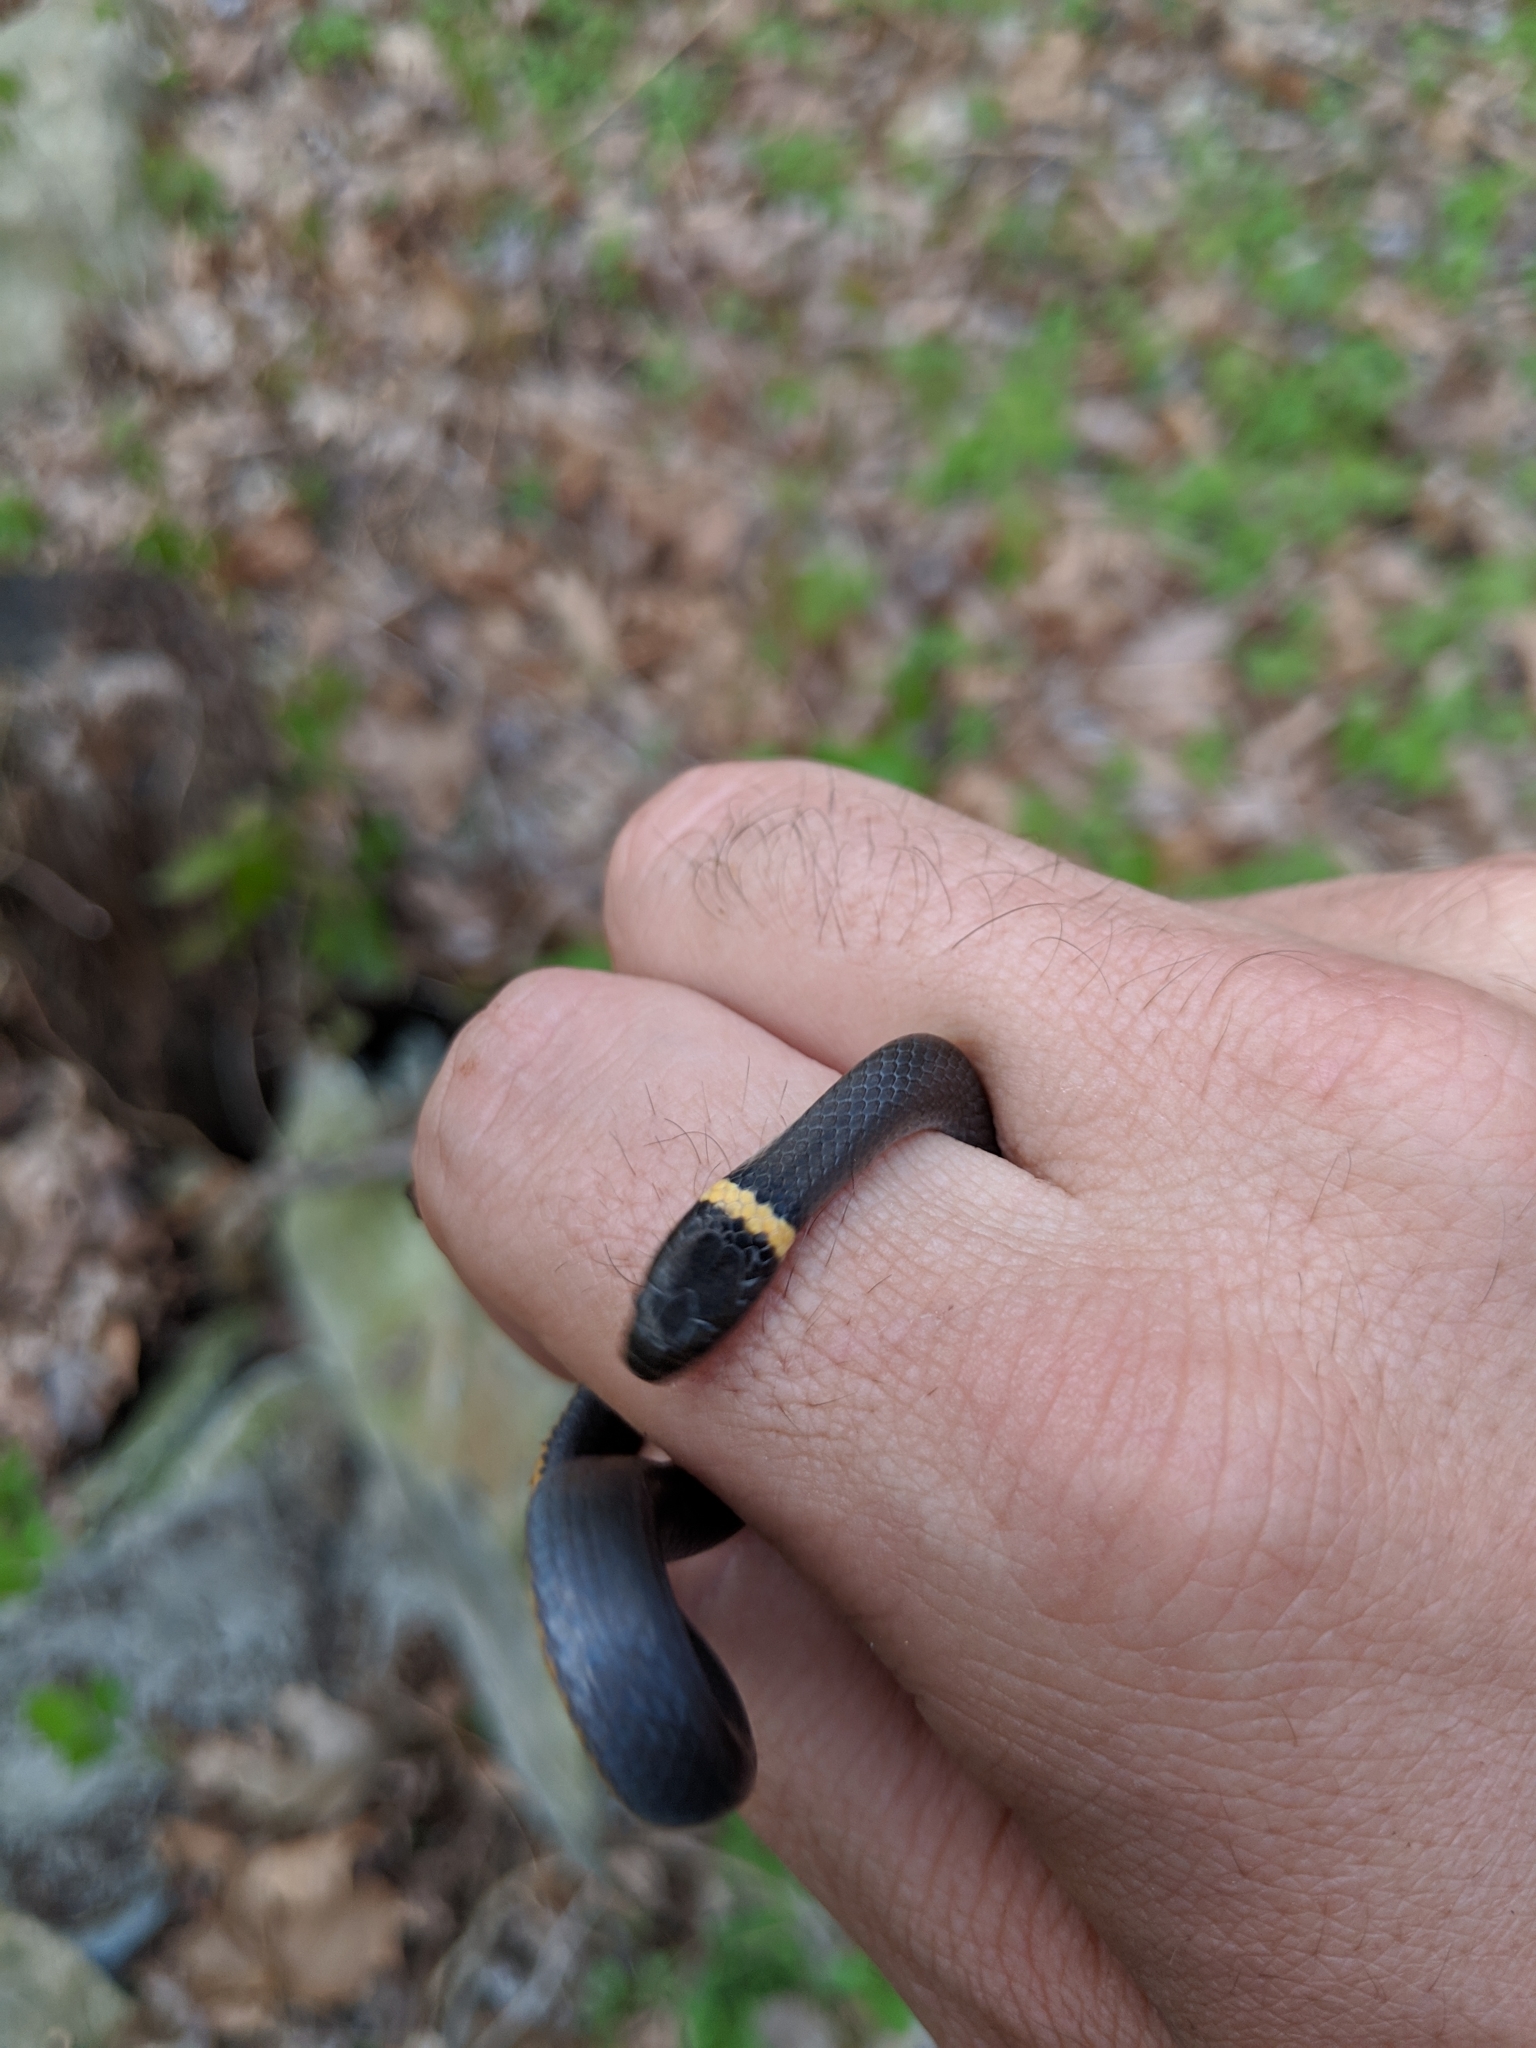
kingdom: Animalia
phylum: Chordata
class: Squamata
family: Colubridae
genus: Diadophis
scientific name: Diadophis punctatus
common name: Ringneck snake
